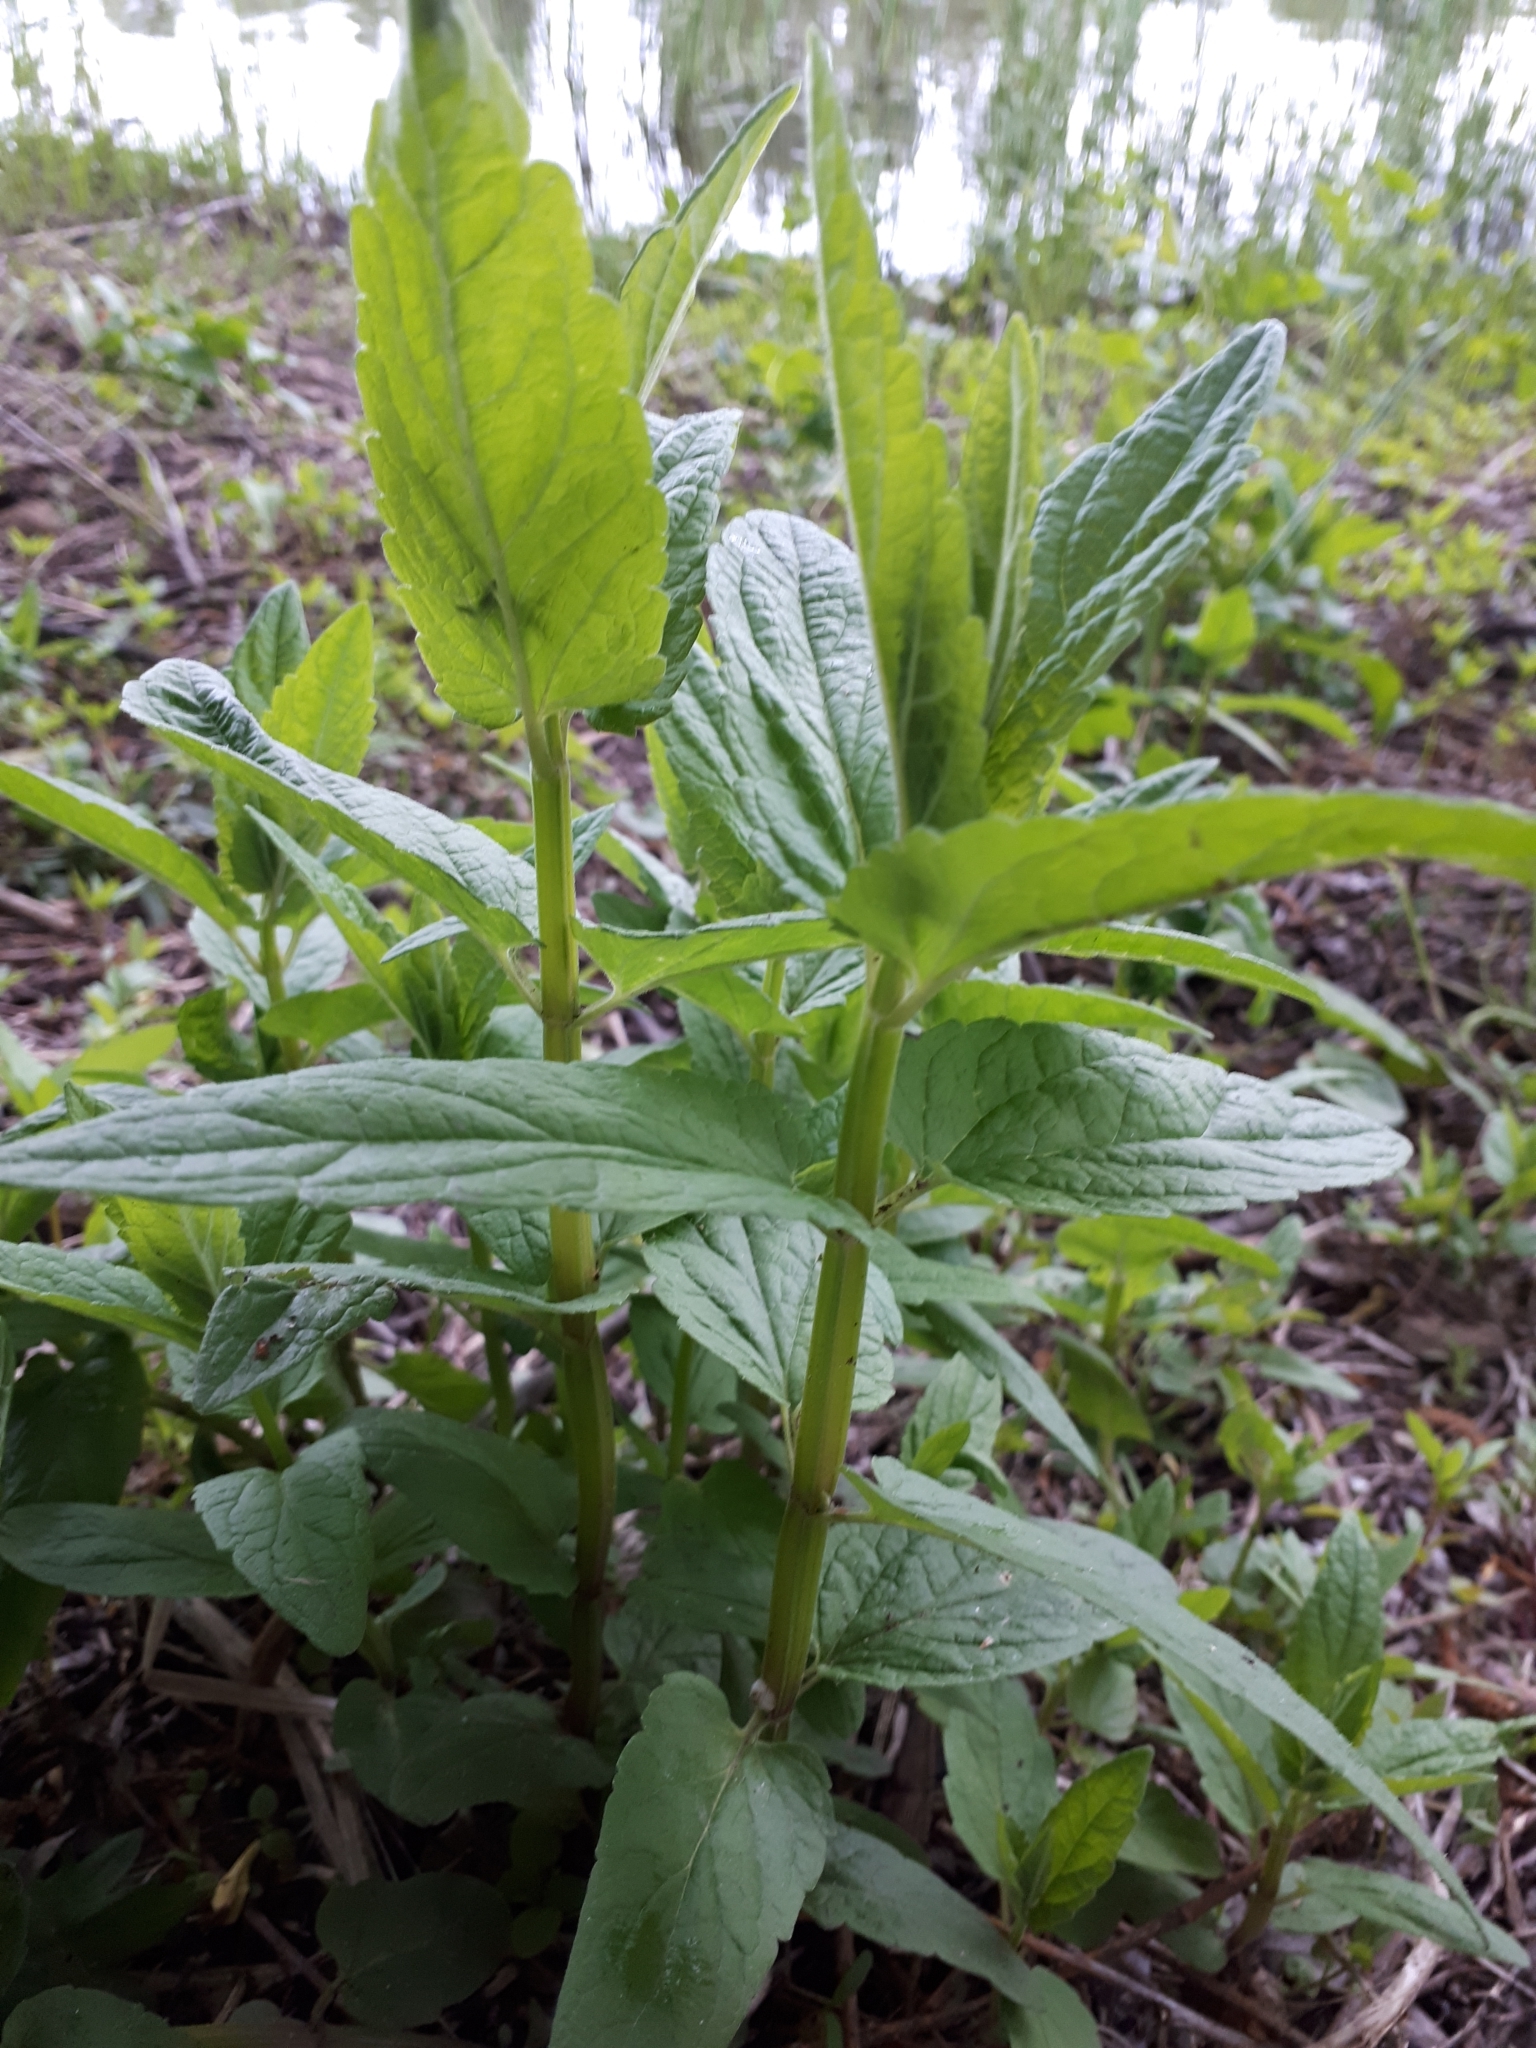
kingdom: Plantae
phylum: Tracheophyta
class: Magnoliopsida
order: Lamiales
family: Lamiaceae
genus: Stachys
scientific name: Stachys palustris
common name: Marsh woundwort
